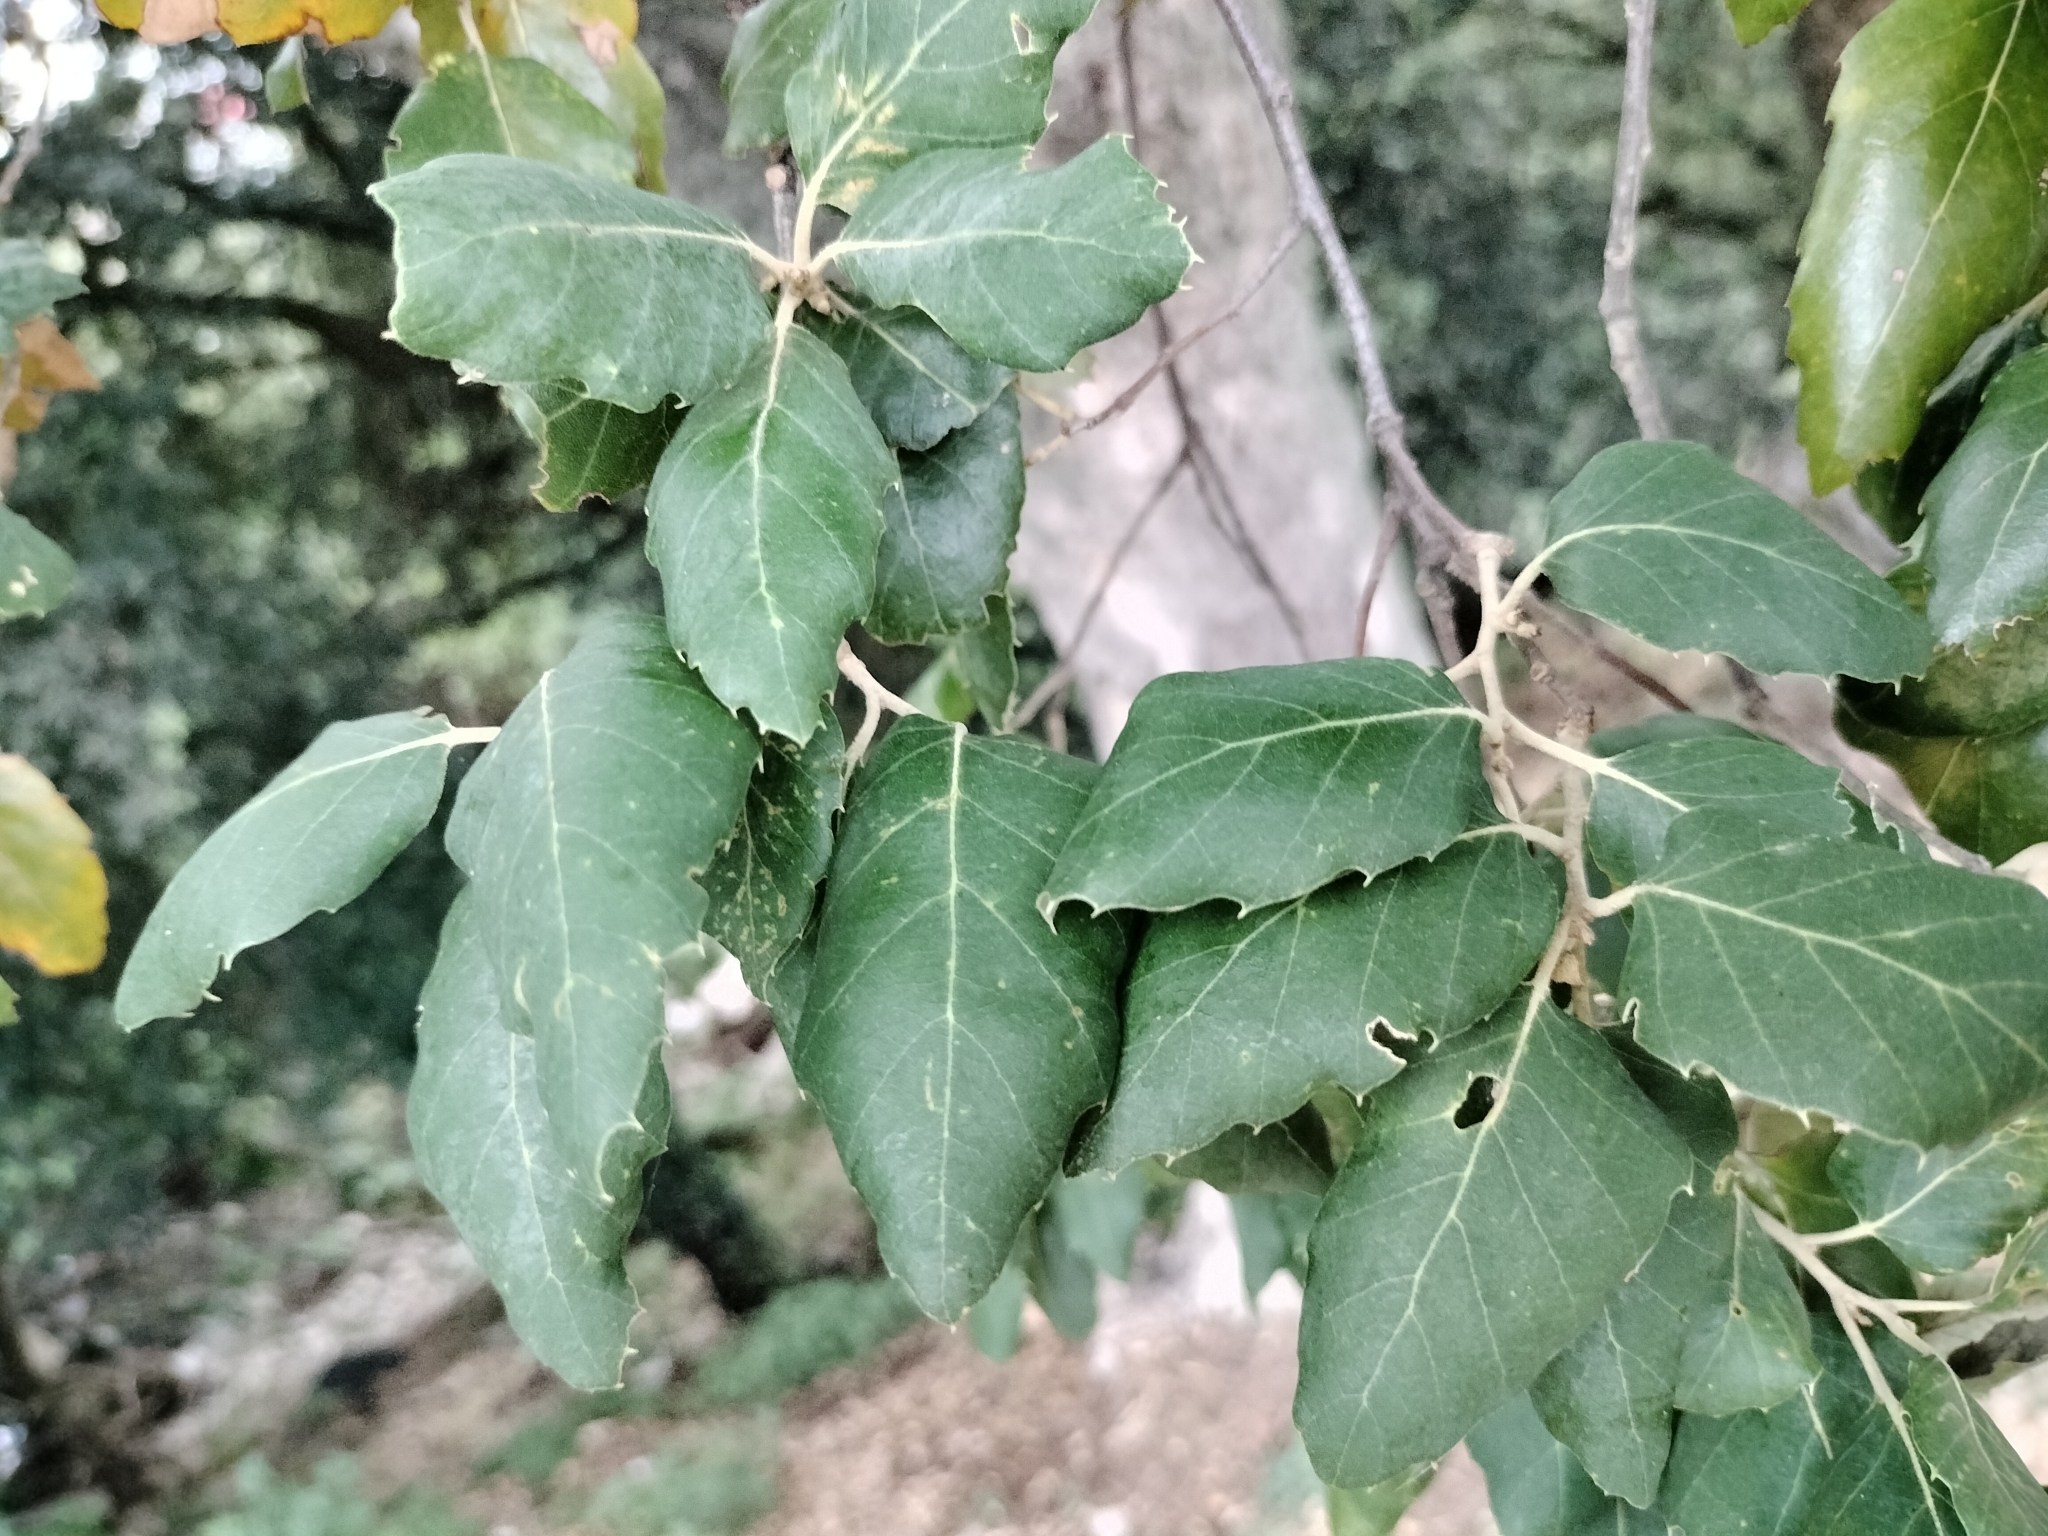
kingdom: Plantae
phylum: Tracheophyta
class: Magnoliopsida
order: Fagales
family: Fagaceae
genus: Quercus
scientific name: Quercus suber
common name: Cork oak
